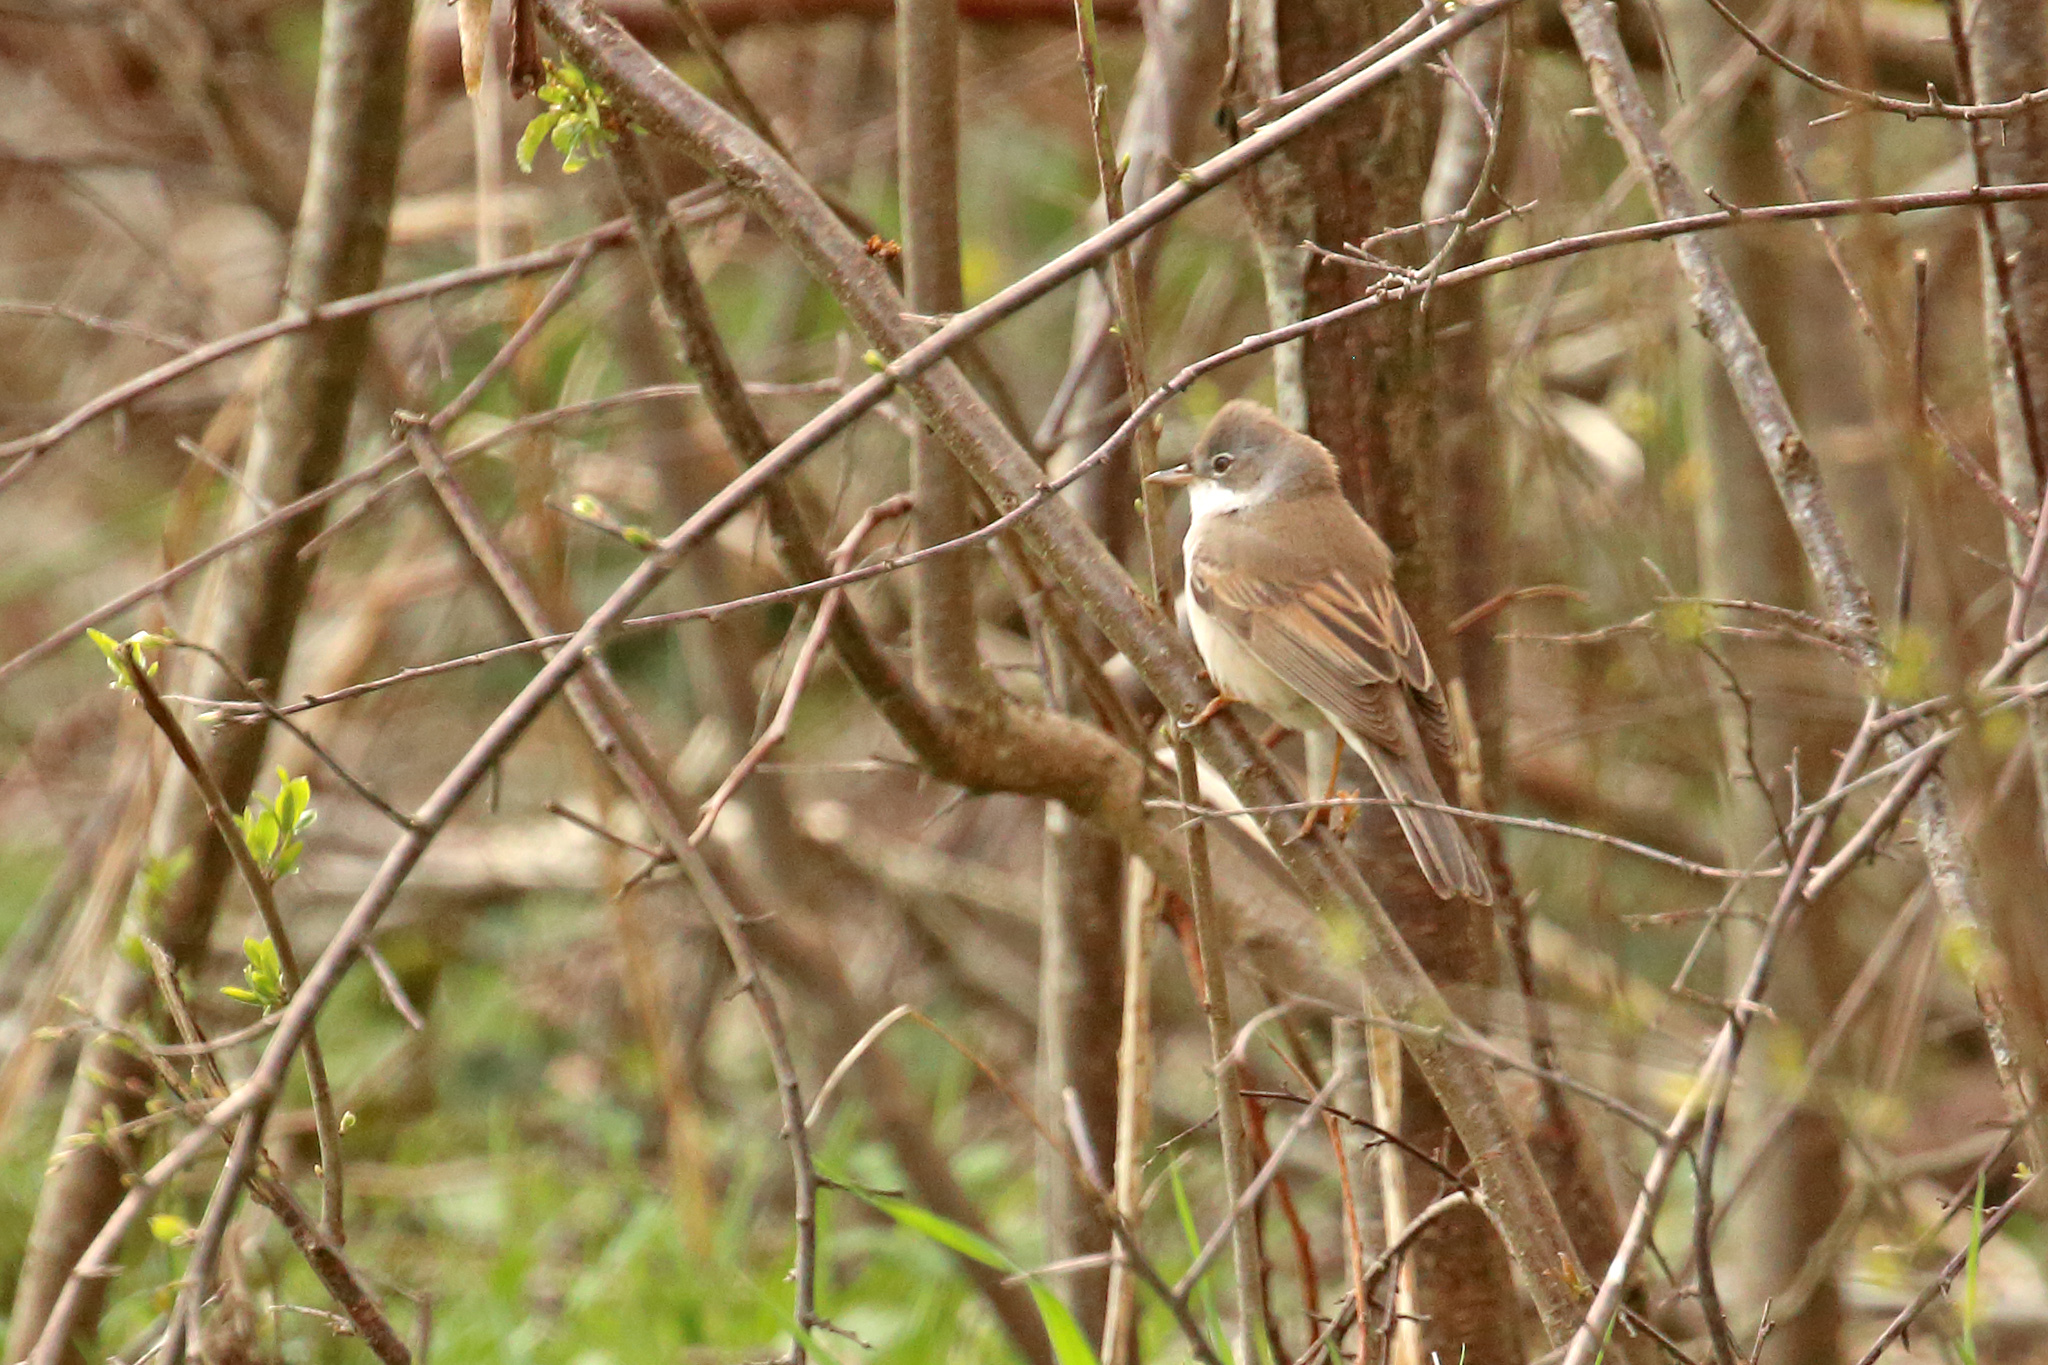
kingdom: Animalia
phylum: Chordata
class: Aves
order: Passeriformes
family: Sylviidae
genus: Sylvia
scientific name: Sylvia communis
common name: Common whitethroat
